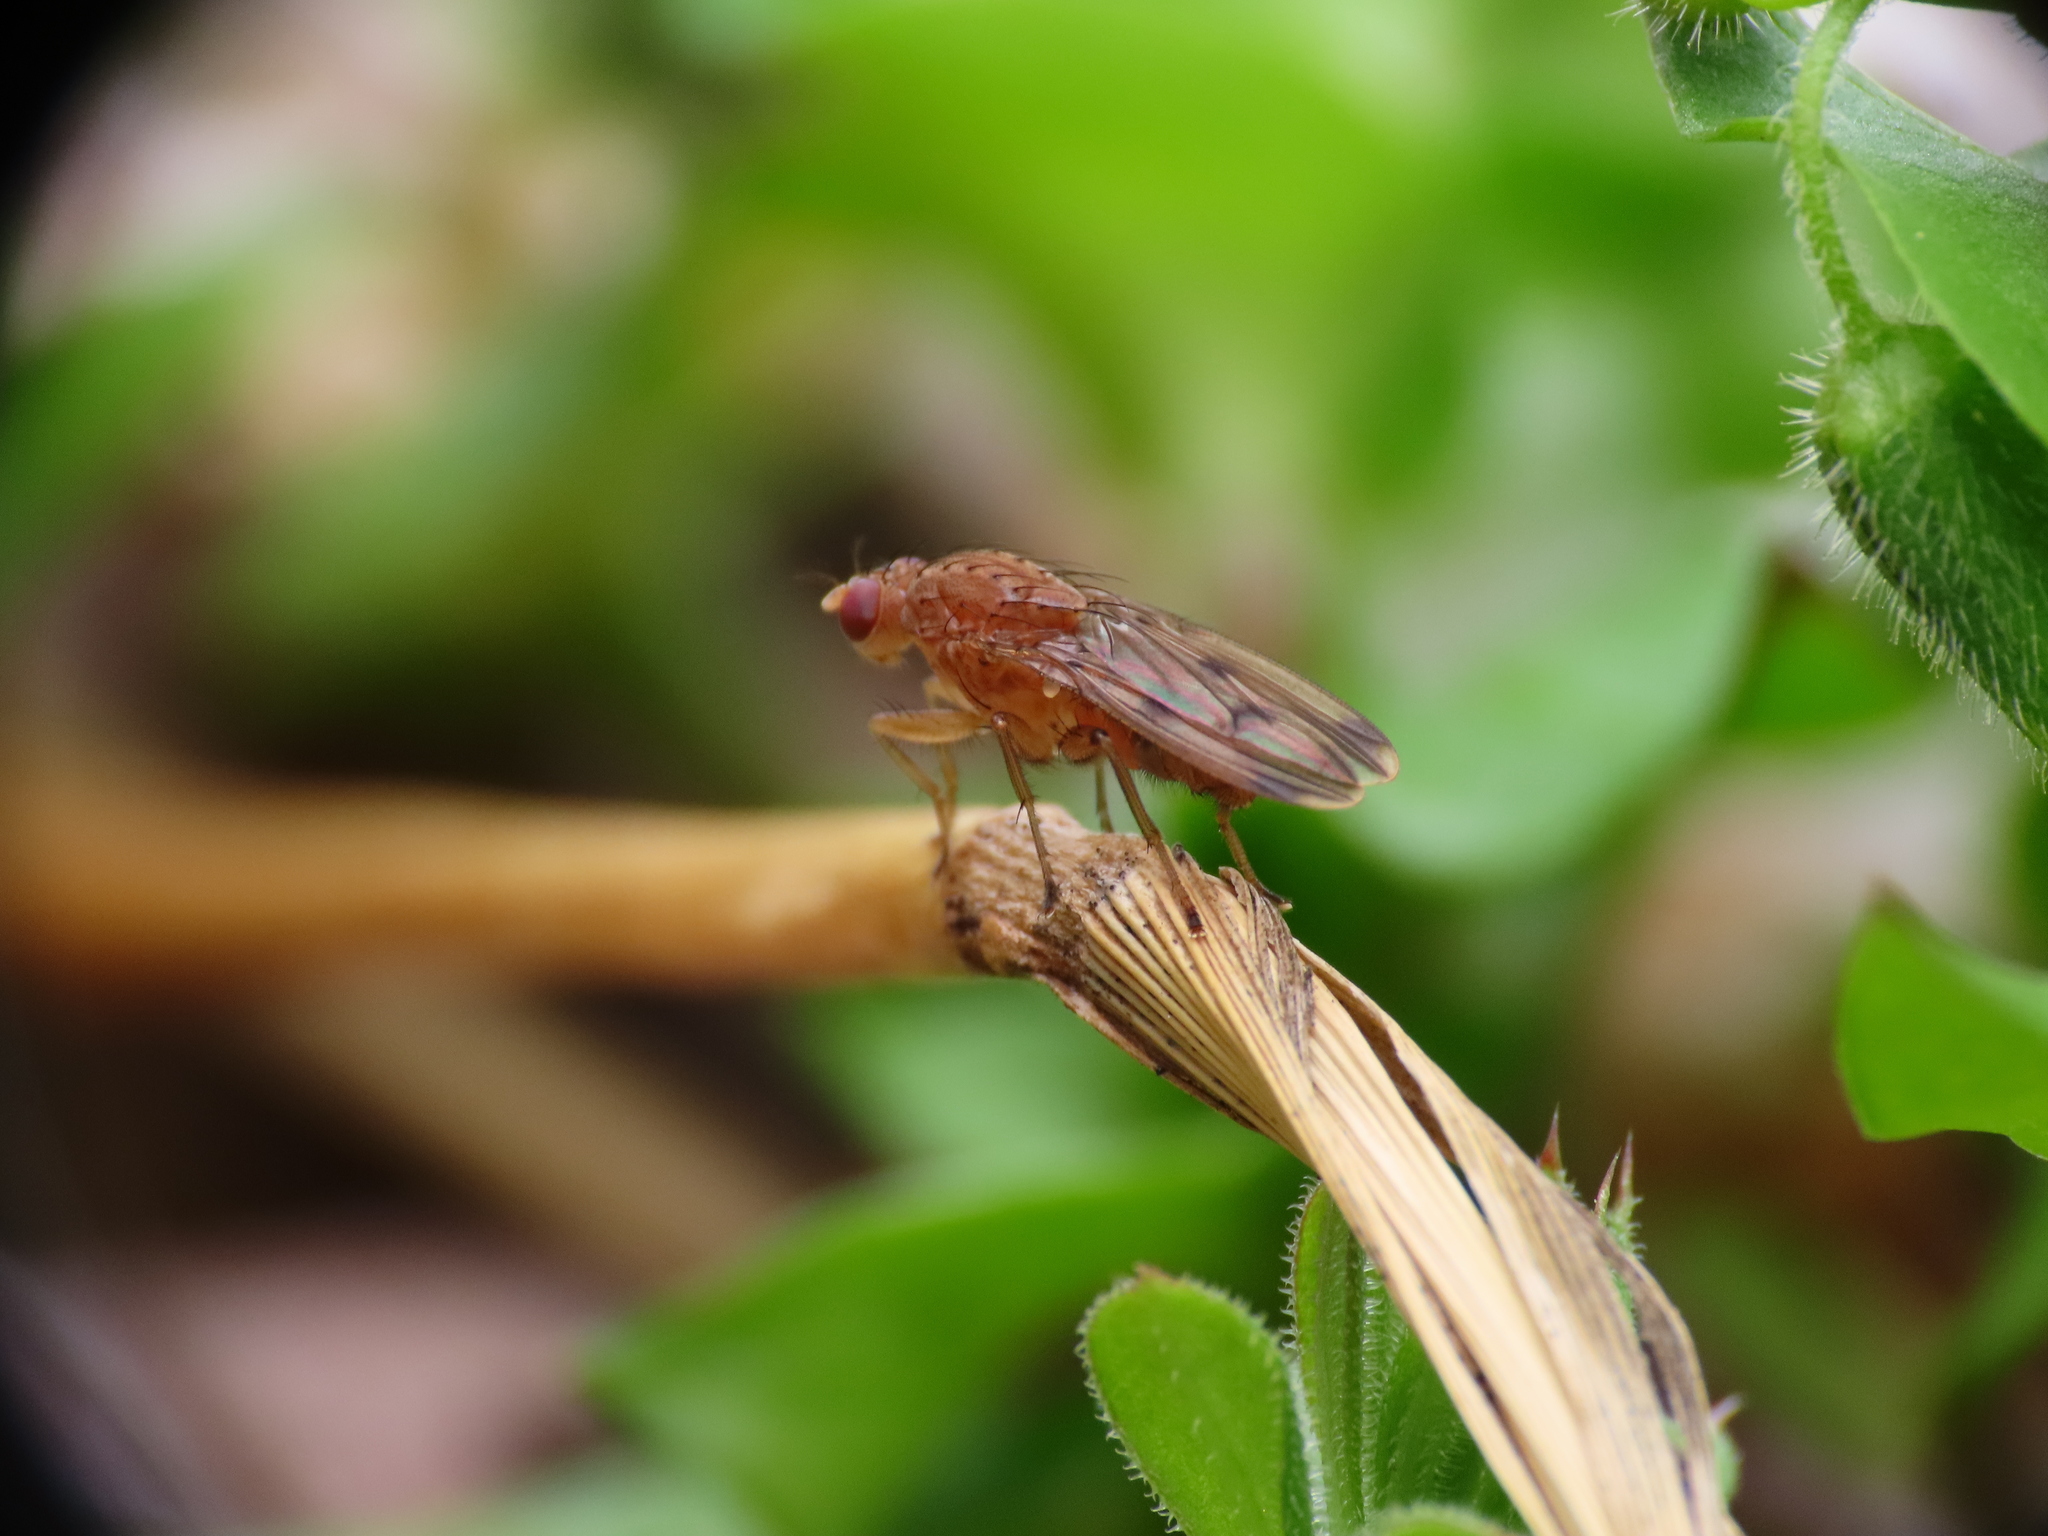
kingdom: Animalia
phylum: Arthropoda
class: Insecta
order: Diptera
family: Heleomyzidae
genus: Suillia
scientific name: Suillia variegata
